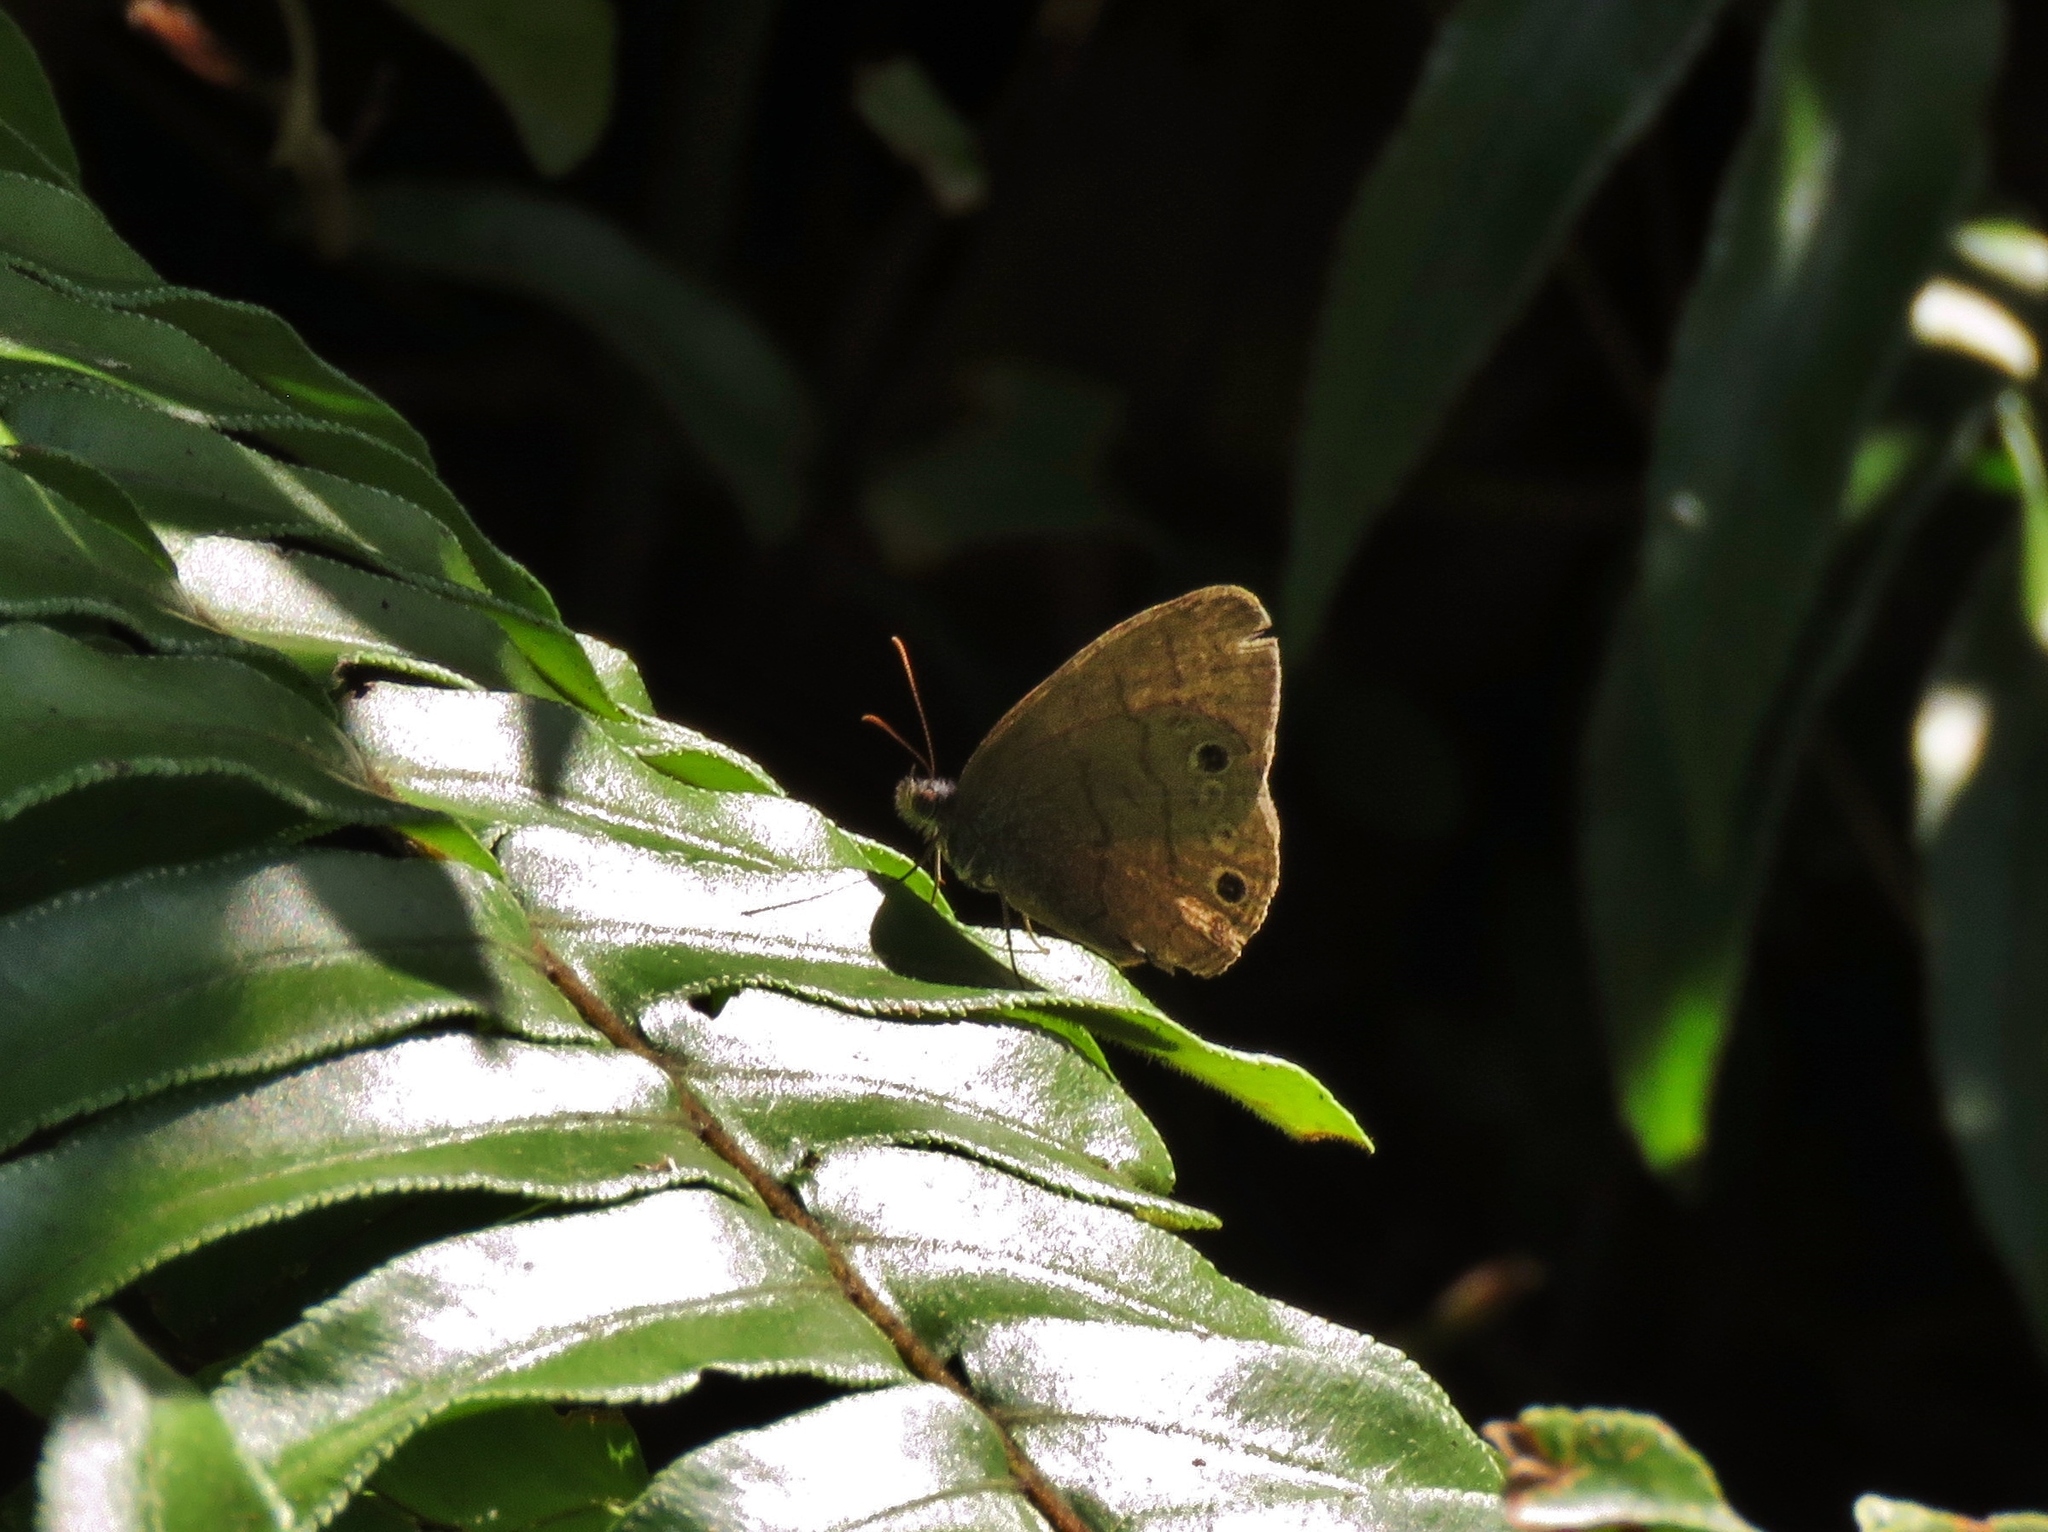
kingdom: Animalia
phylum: Arthropoda
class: Insecta
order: Lepidoptera
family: Nymphalidae
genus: Hermeuptychia
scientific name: Hermeuptychia hermes
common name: Hermes satyr
